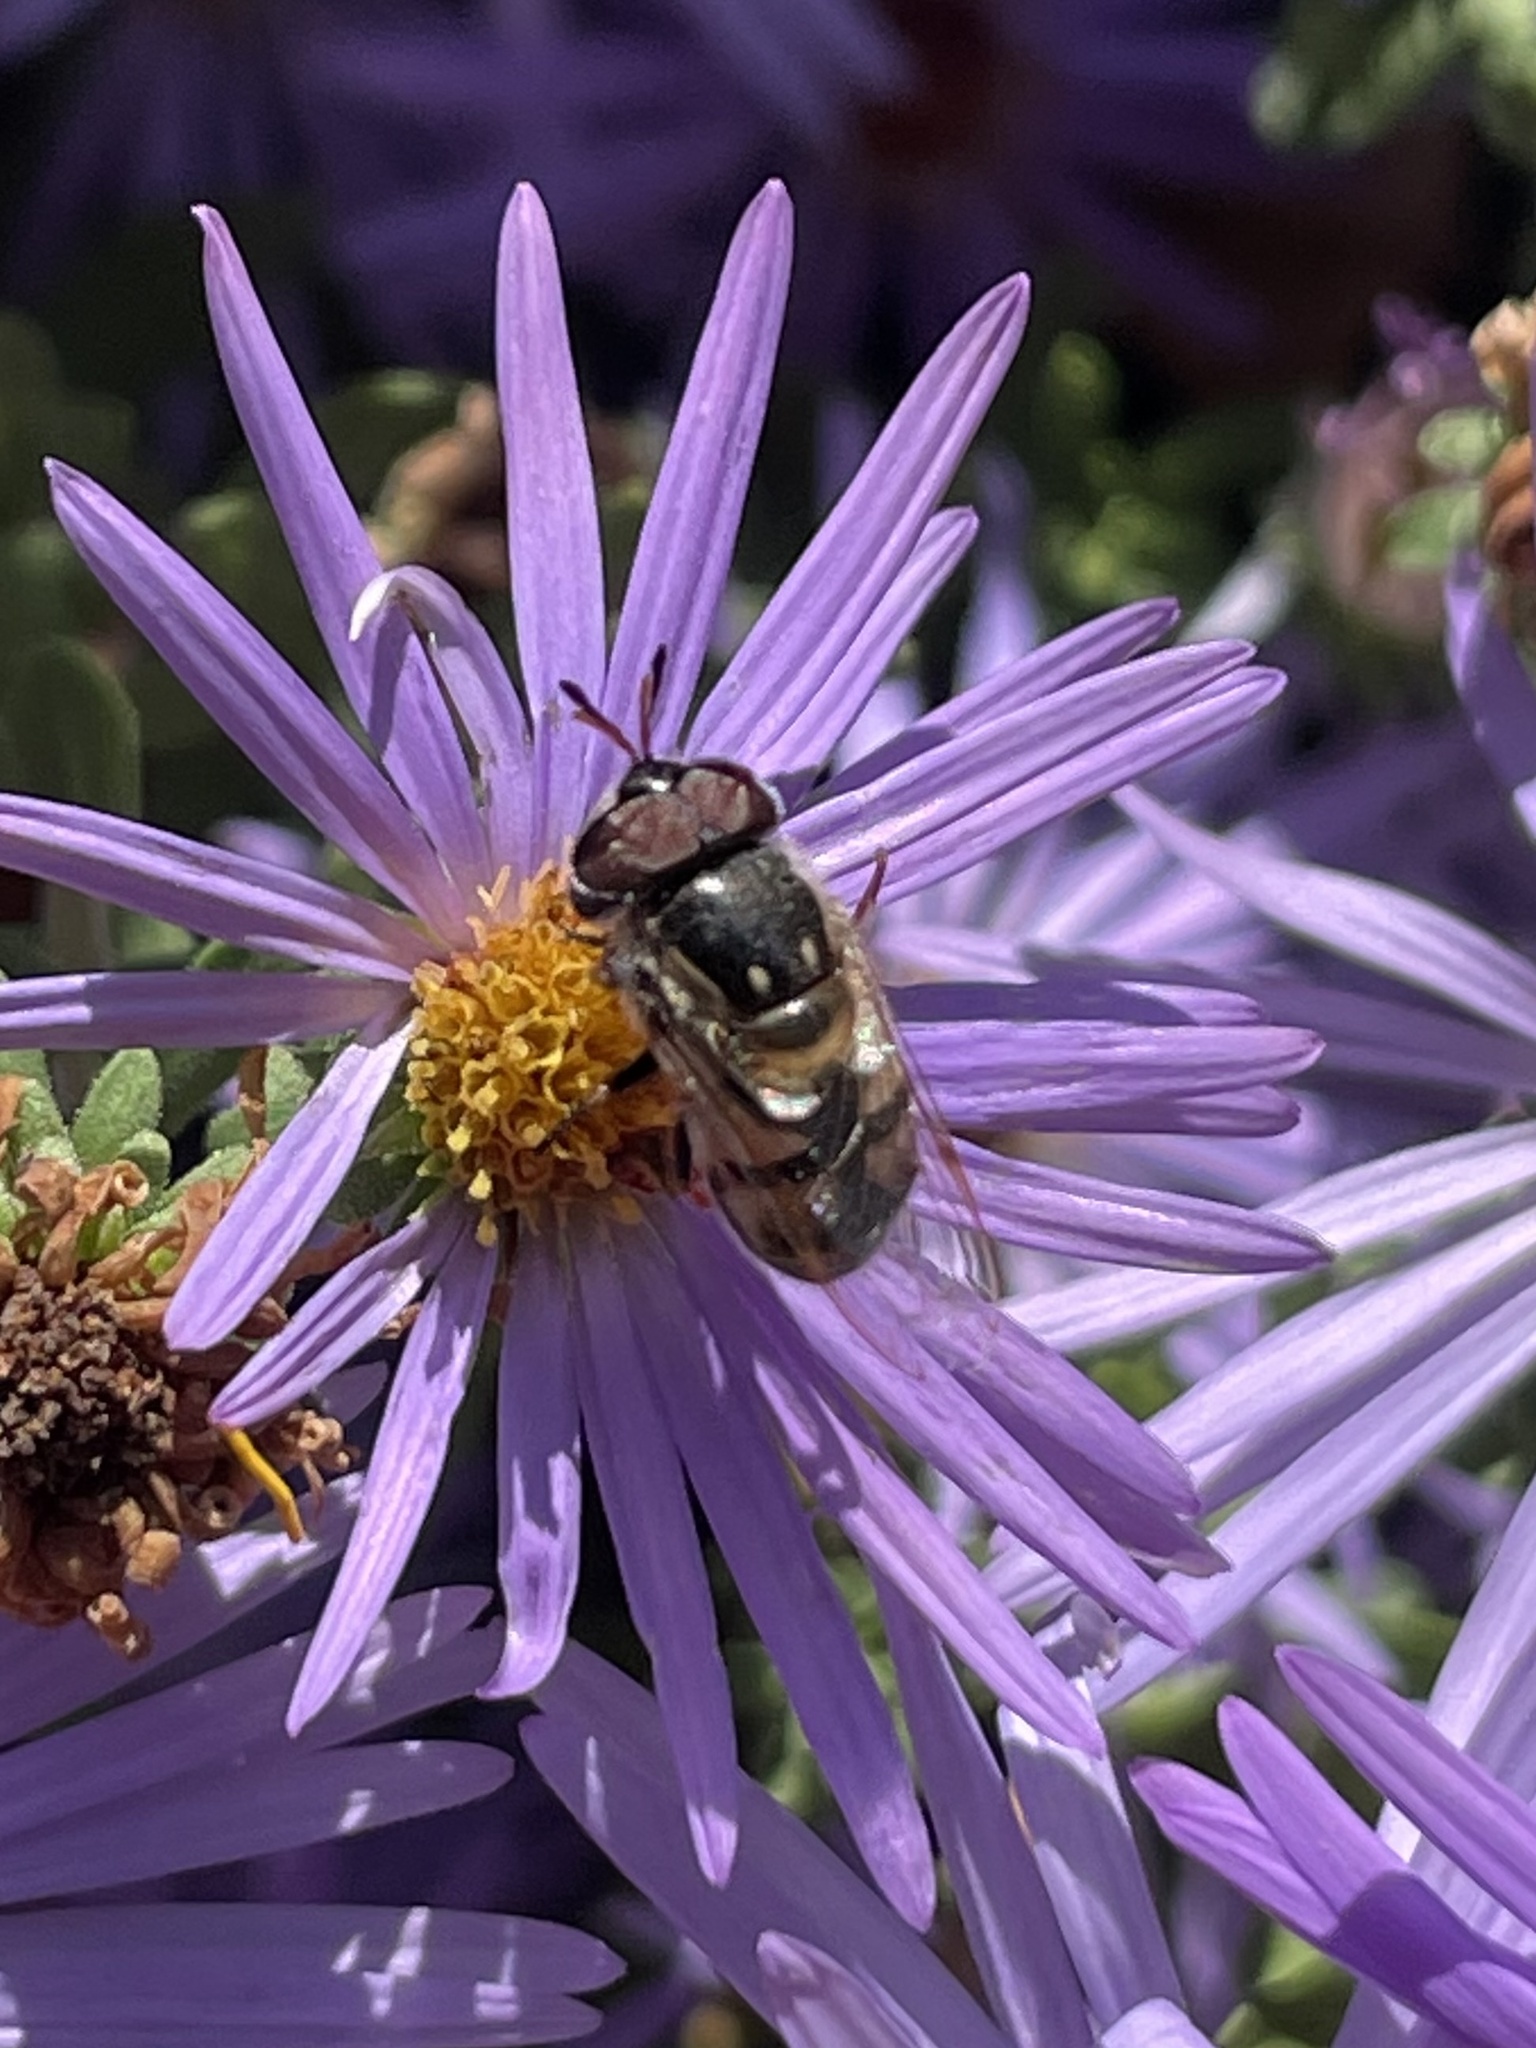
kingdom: Animalia
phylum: Arthropoda
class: Insecta
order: Diptera
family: Syrphidae
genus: Copestylum
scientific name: Copestylum marginatum
